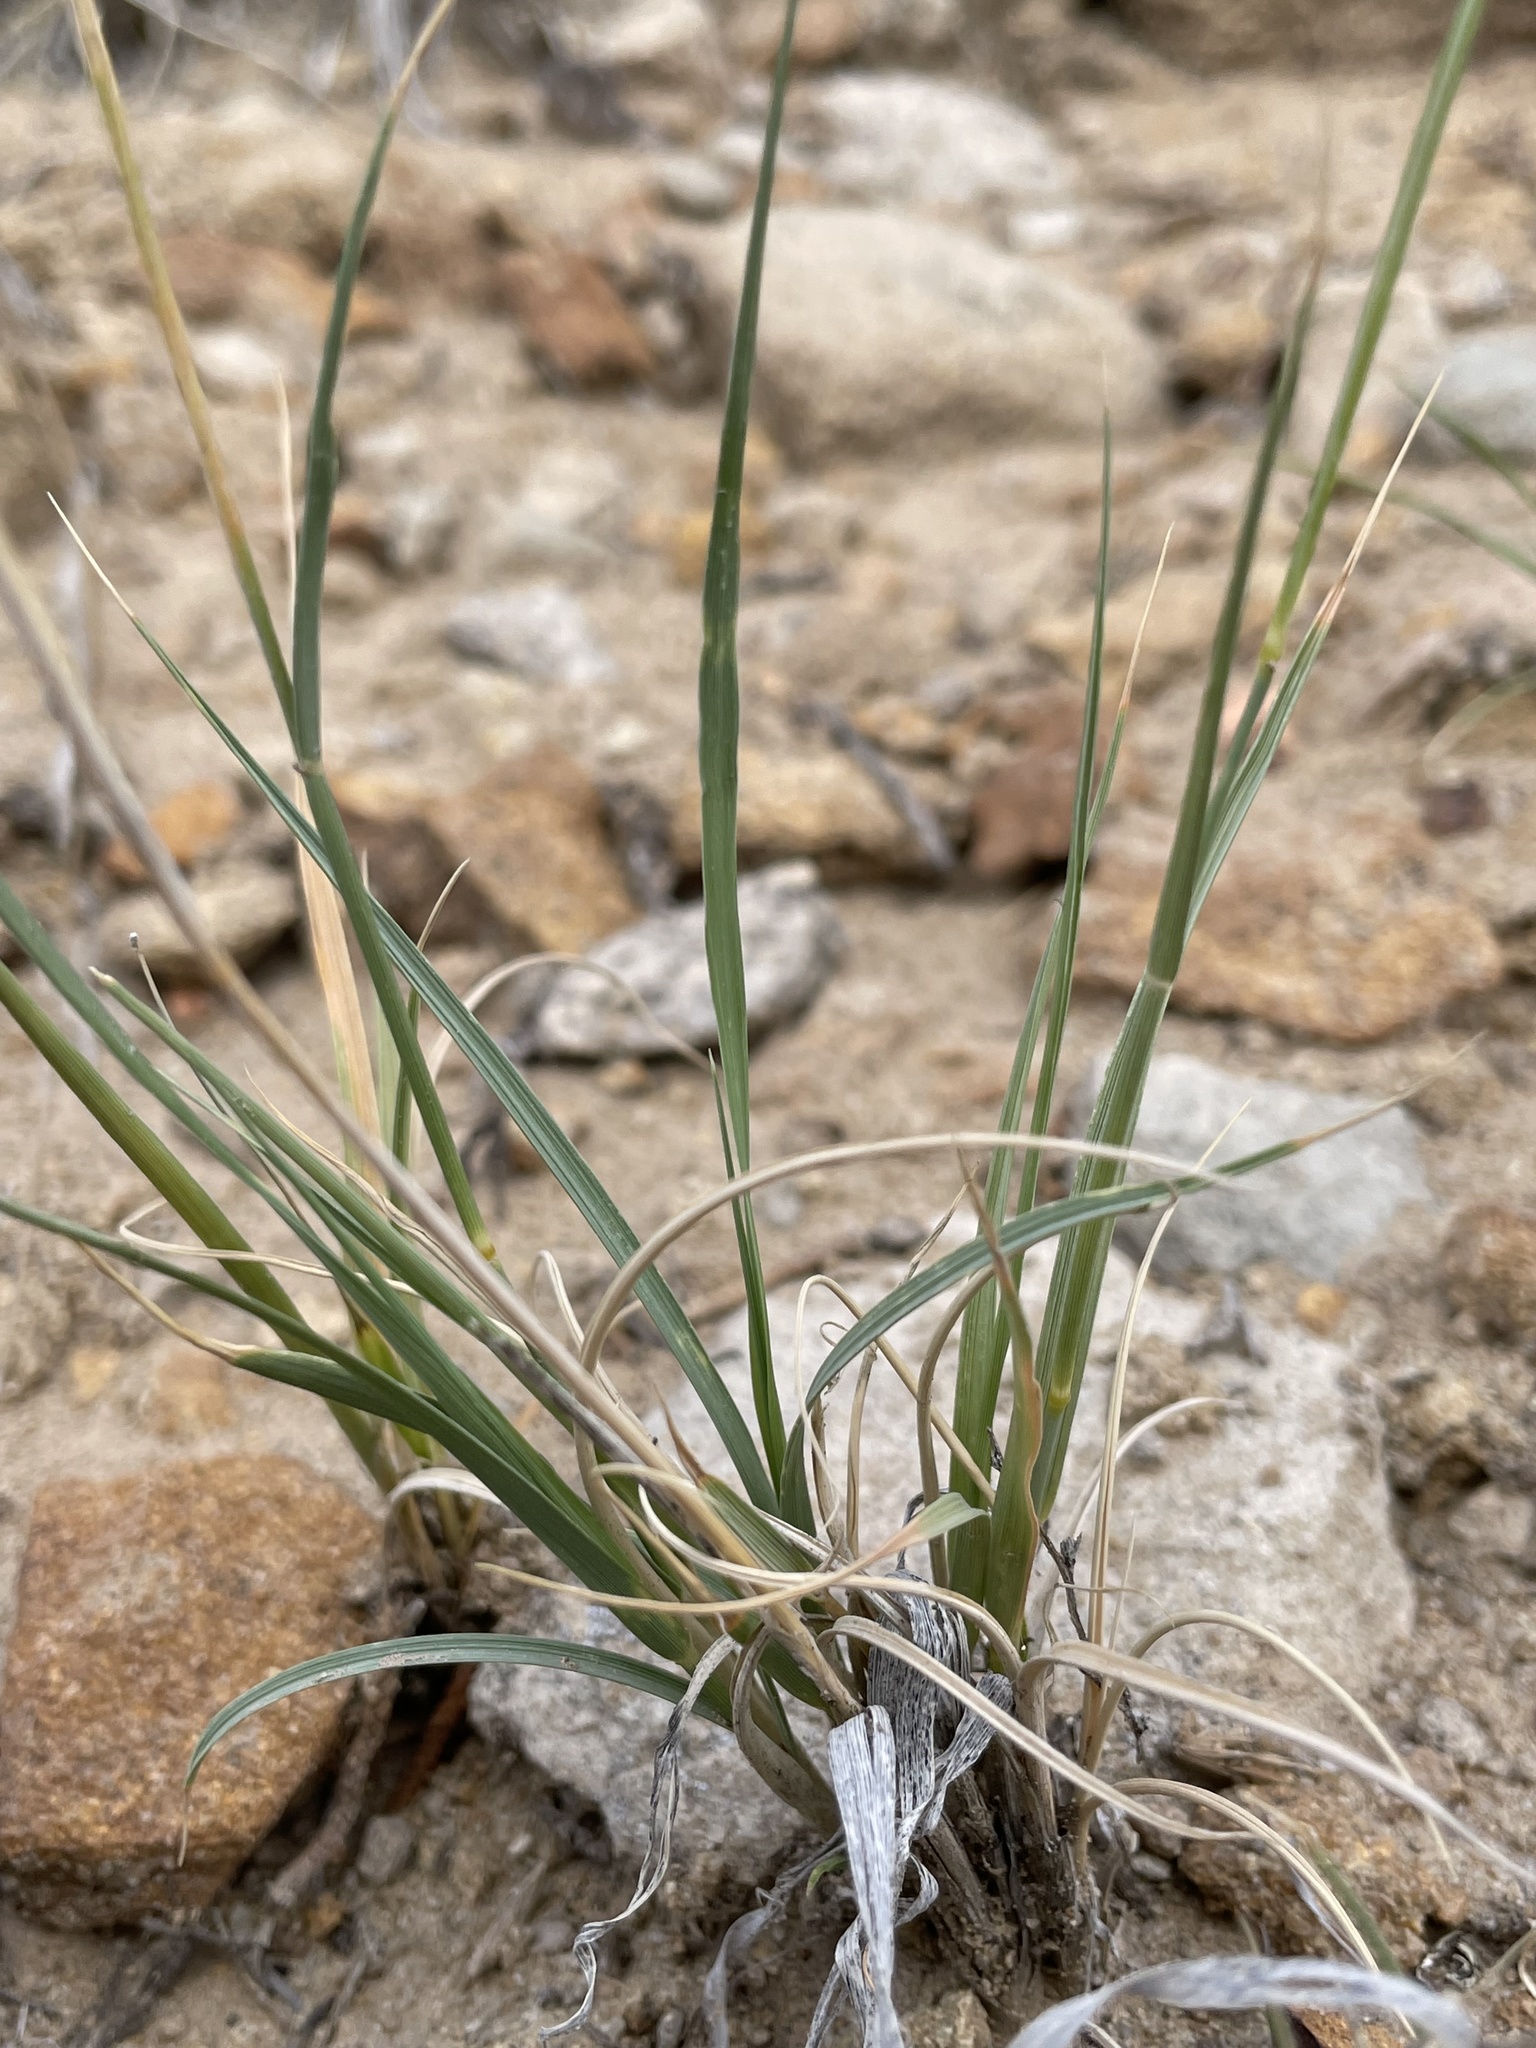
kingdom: Plantae
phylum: Tracheophyta
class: Liliopsida
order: Poales
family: Poaceae
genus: Hilaria
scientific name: Hilaria jamesii
